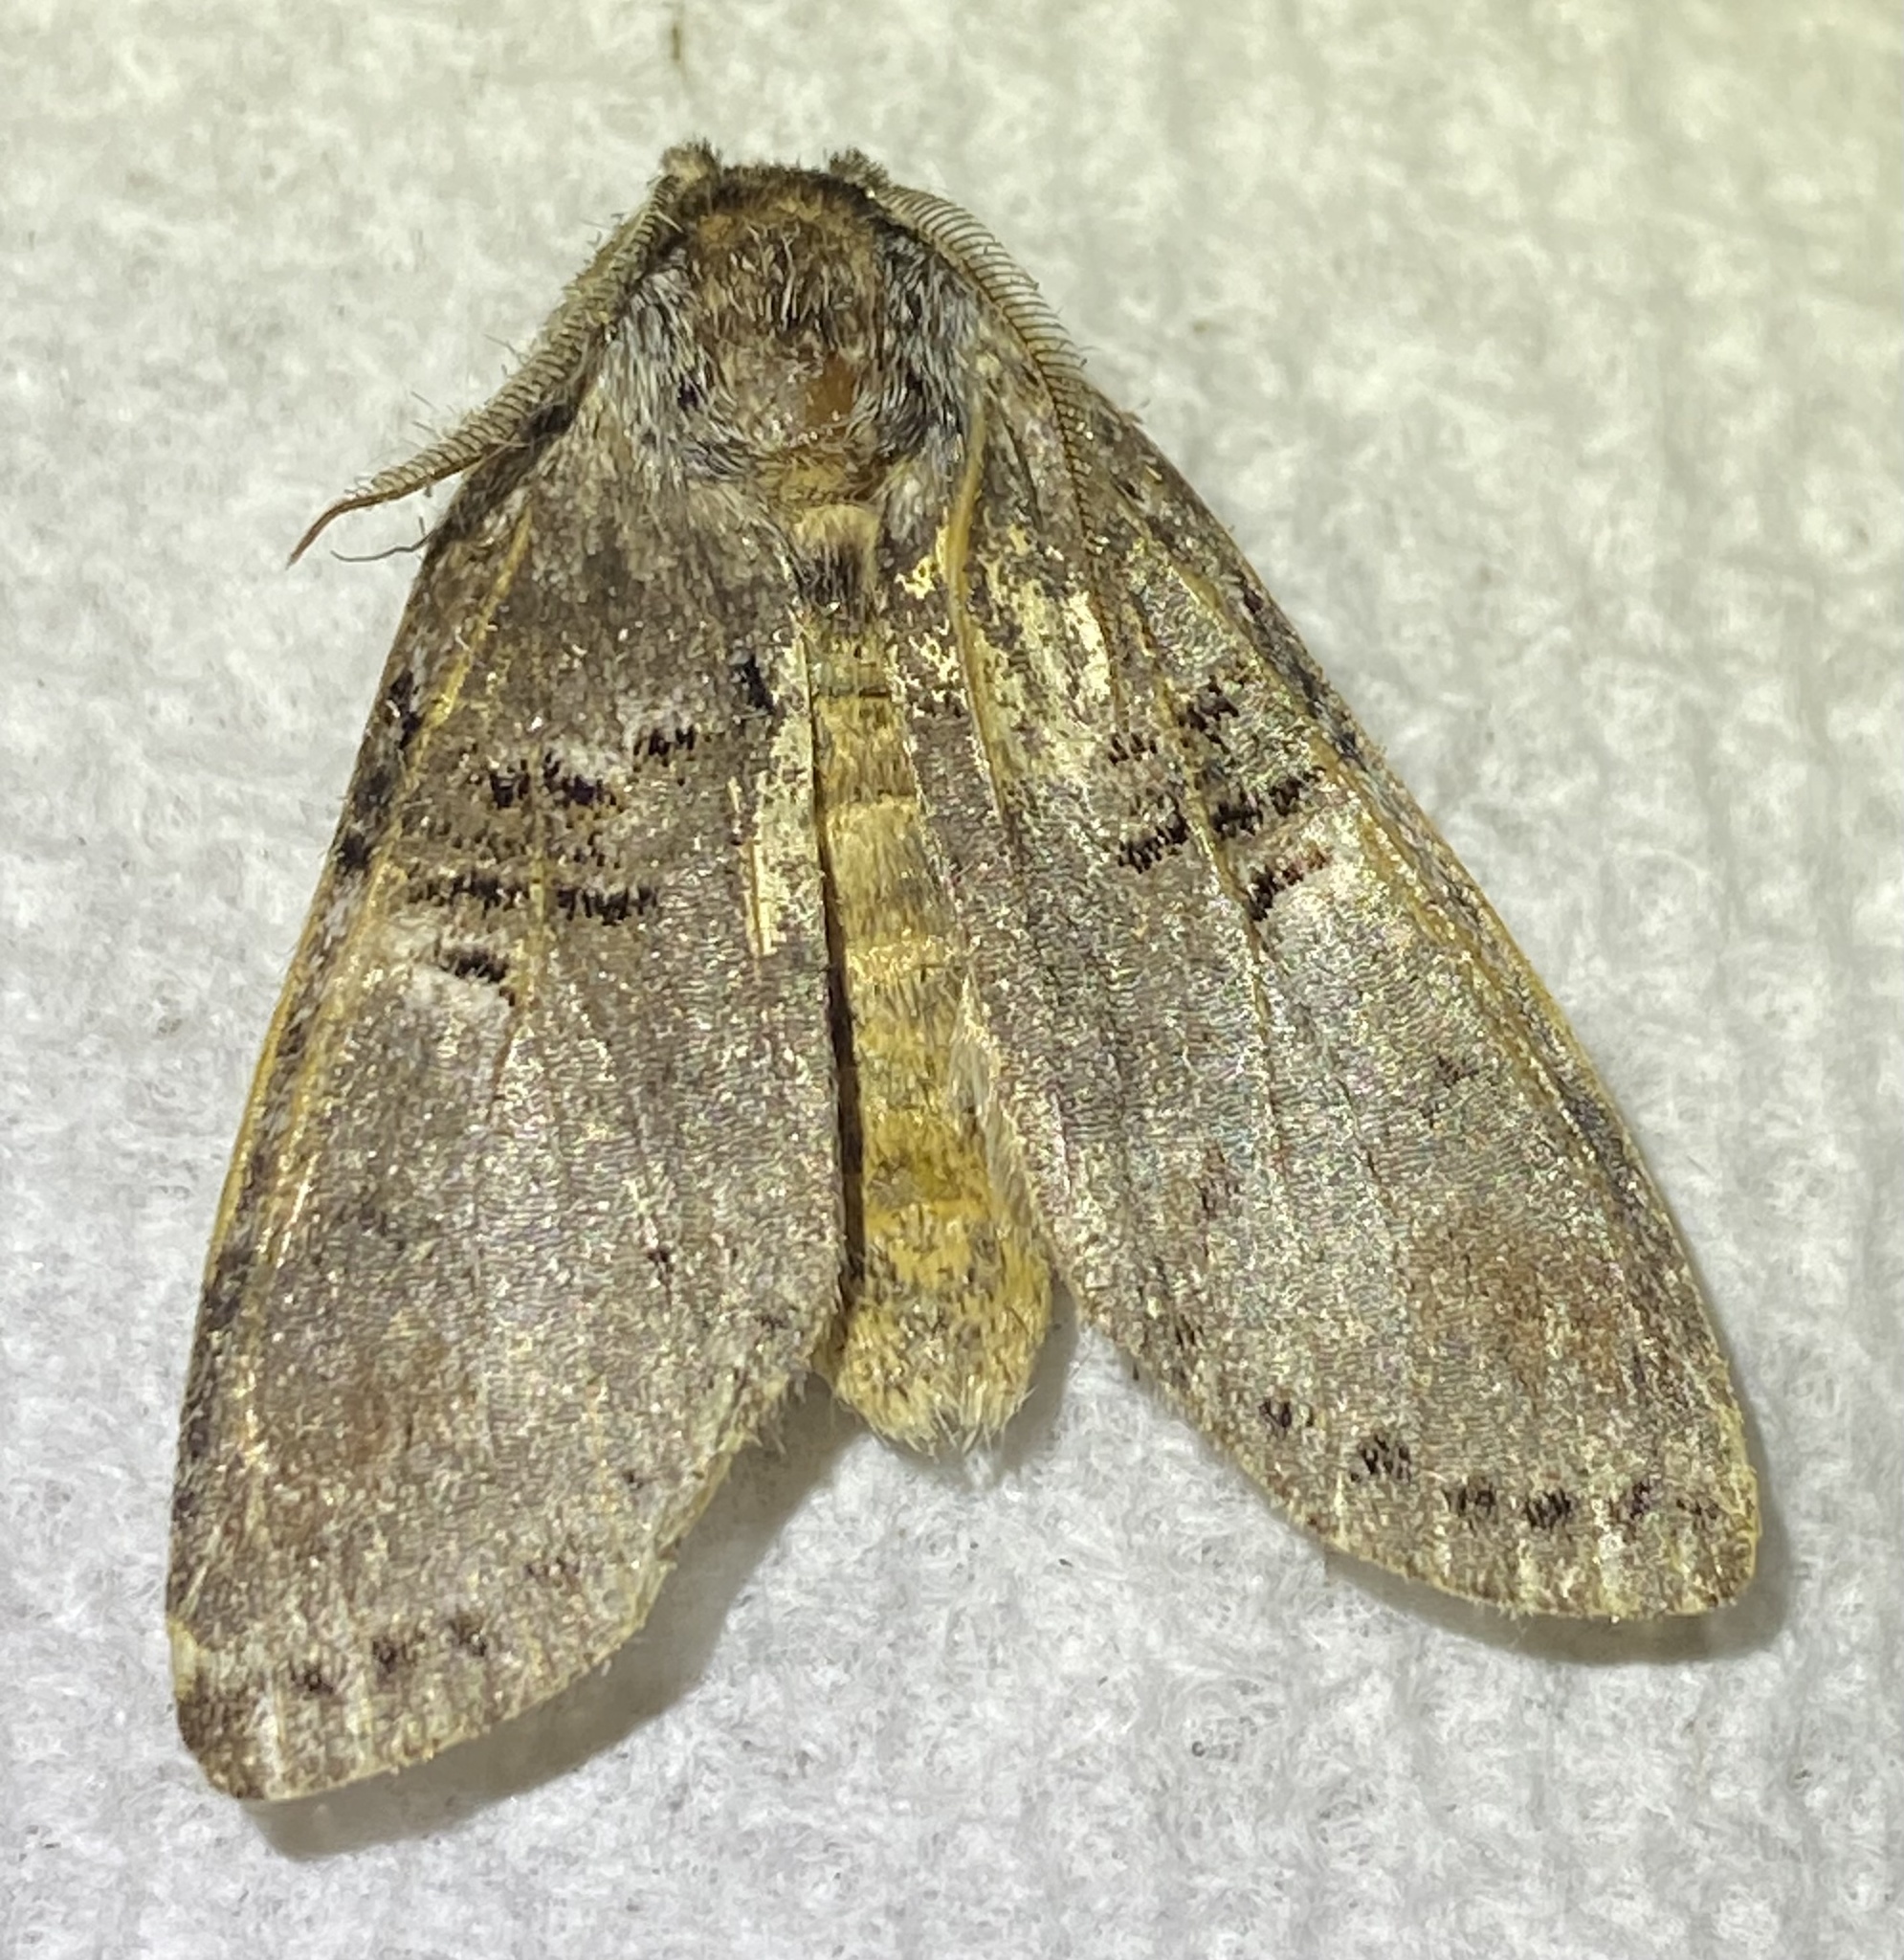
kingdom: Animalia
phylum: Arthropoda
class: Insecta
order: Lepidoptera
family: Notodontidae
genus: Ellida
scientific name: Ellida caniplaga
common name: Linden prominent
